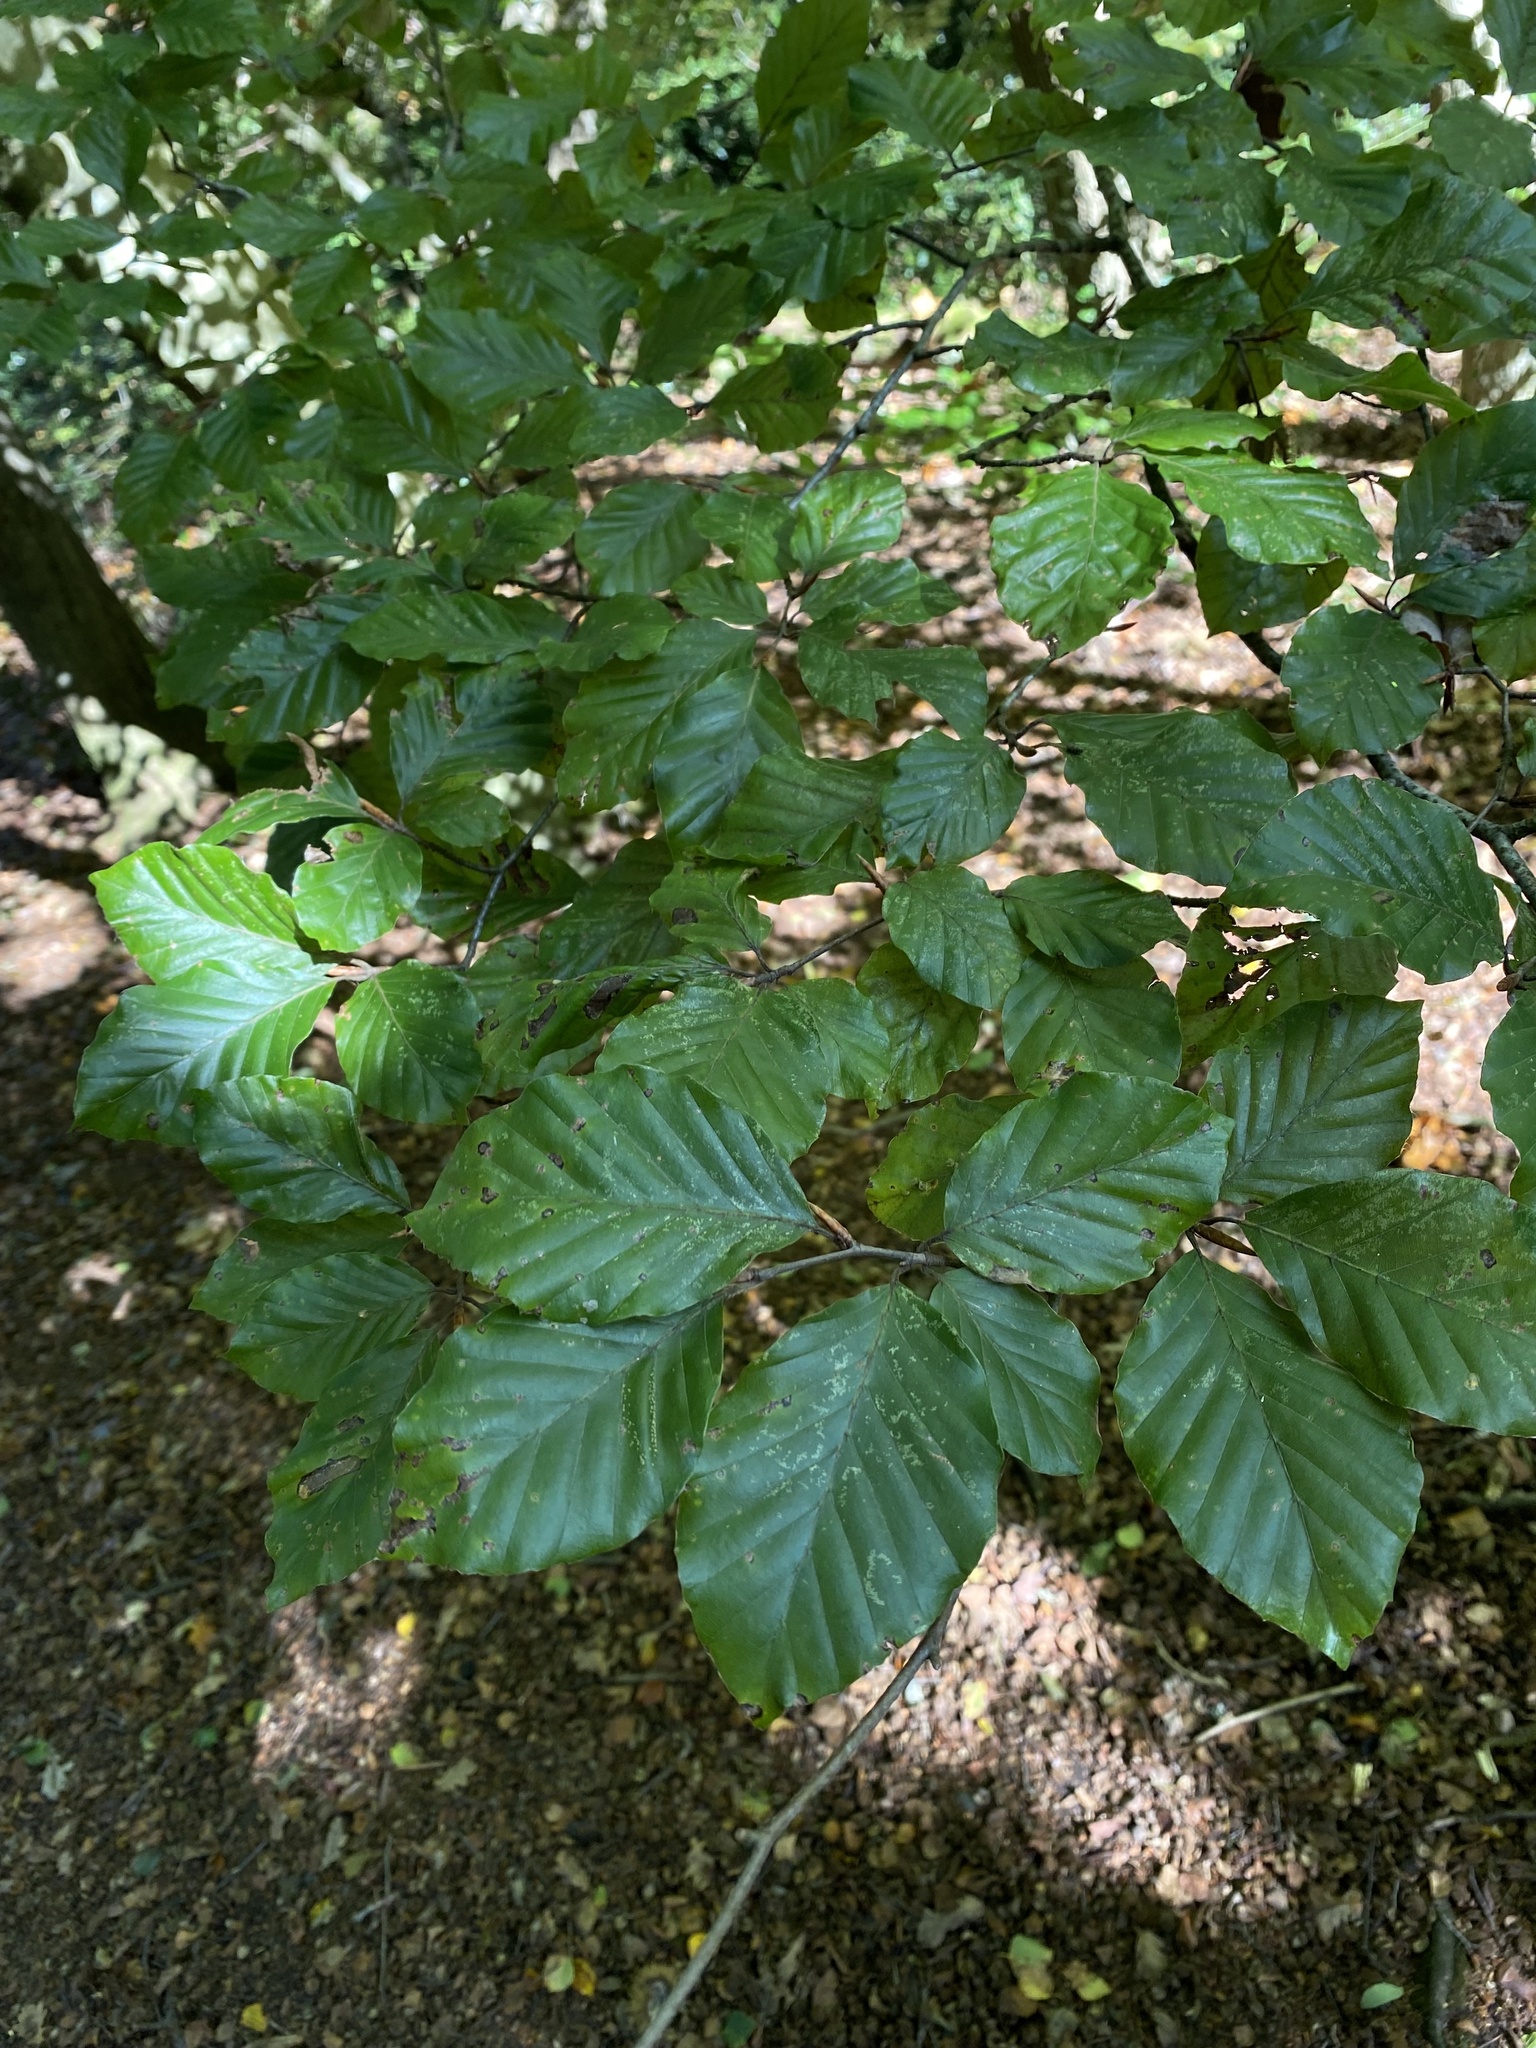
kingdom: Plantae
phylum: Tracheophyta
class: Magnoliopsida
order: Fagales
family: Fagaceae
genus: Fagus
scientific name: Fagus sylvatica
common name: Beech
